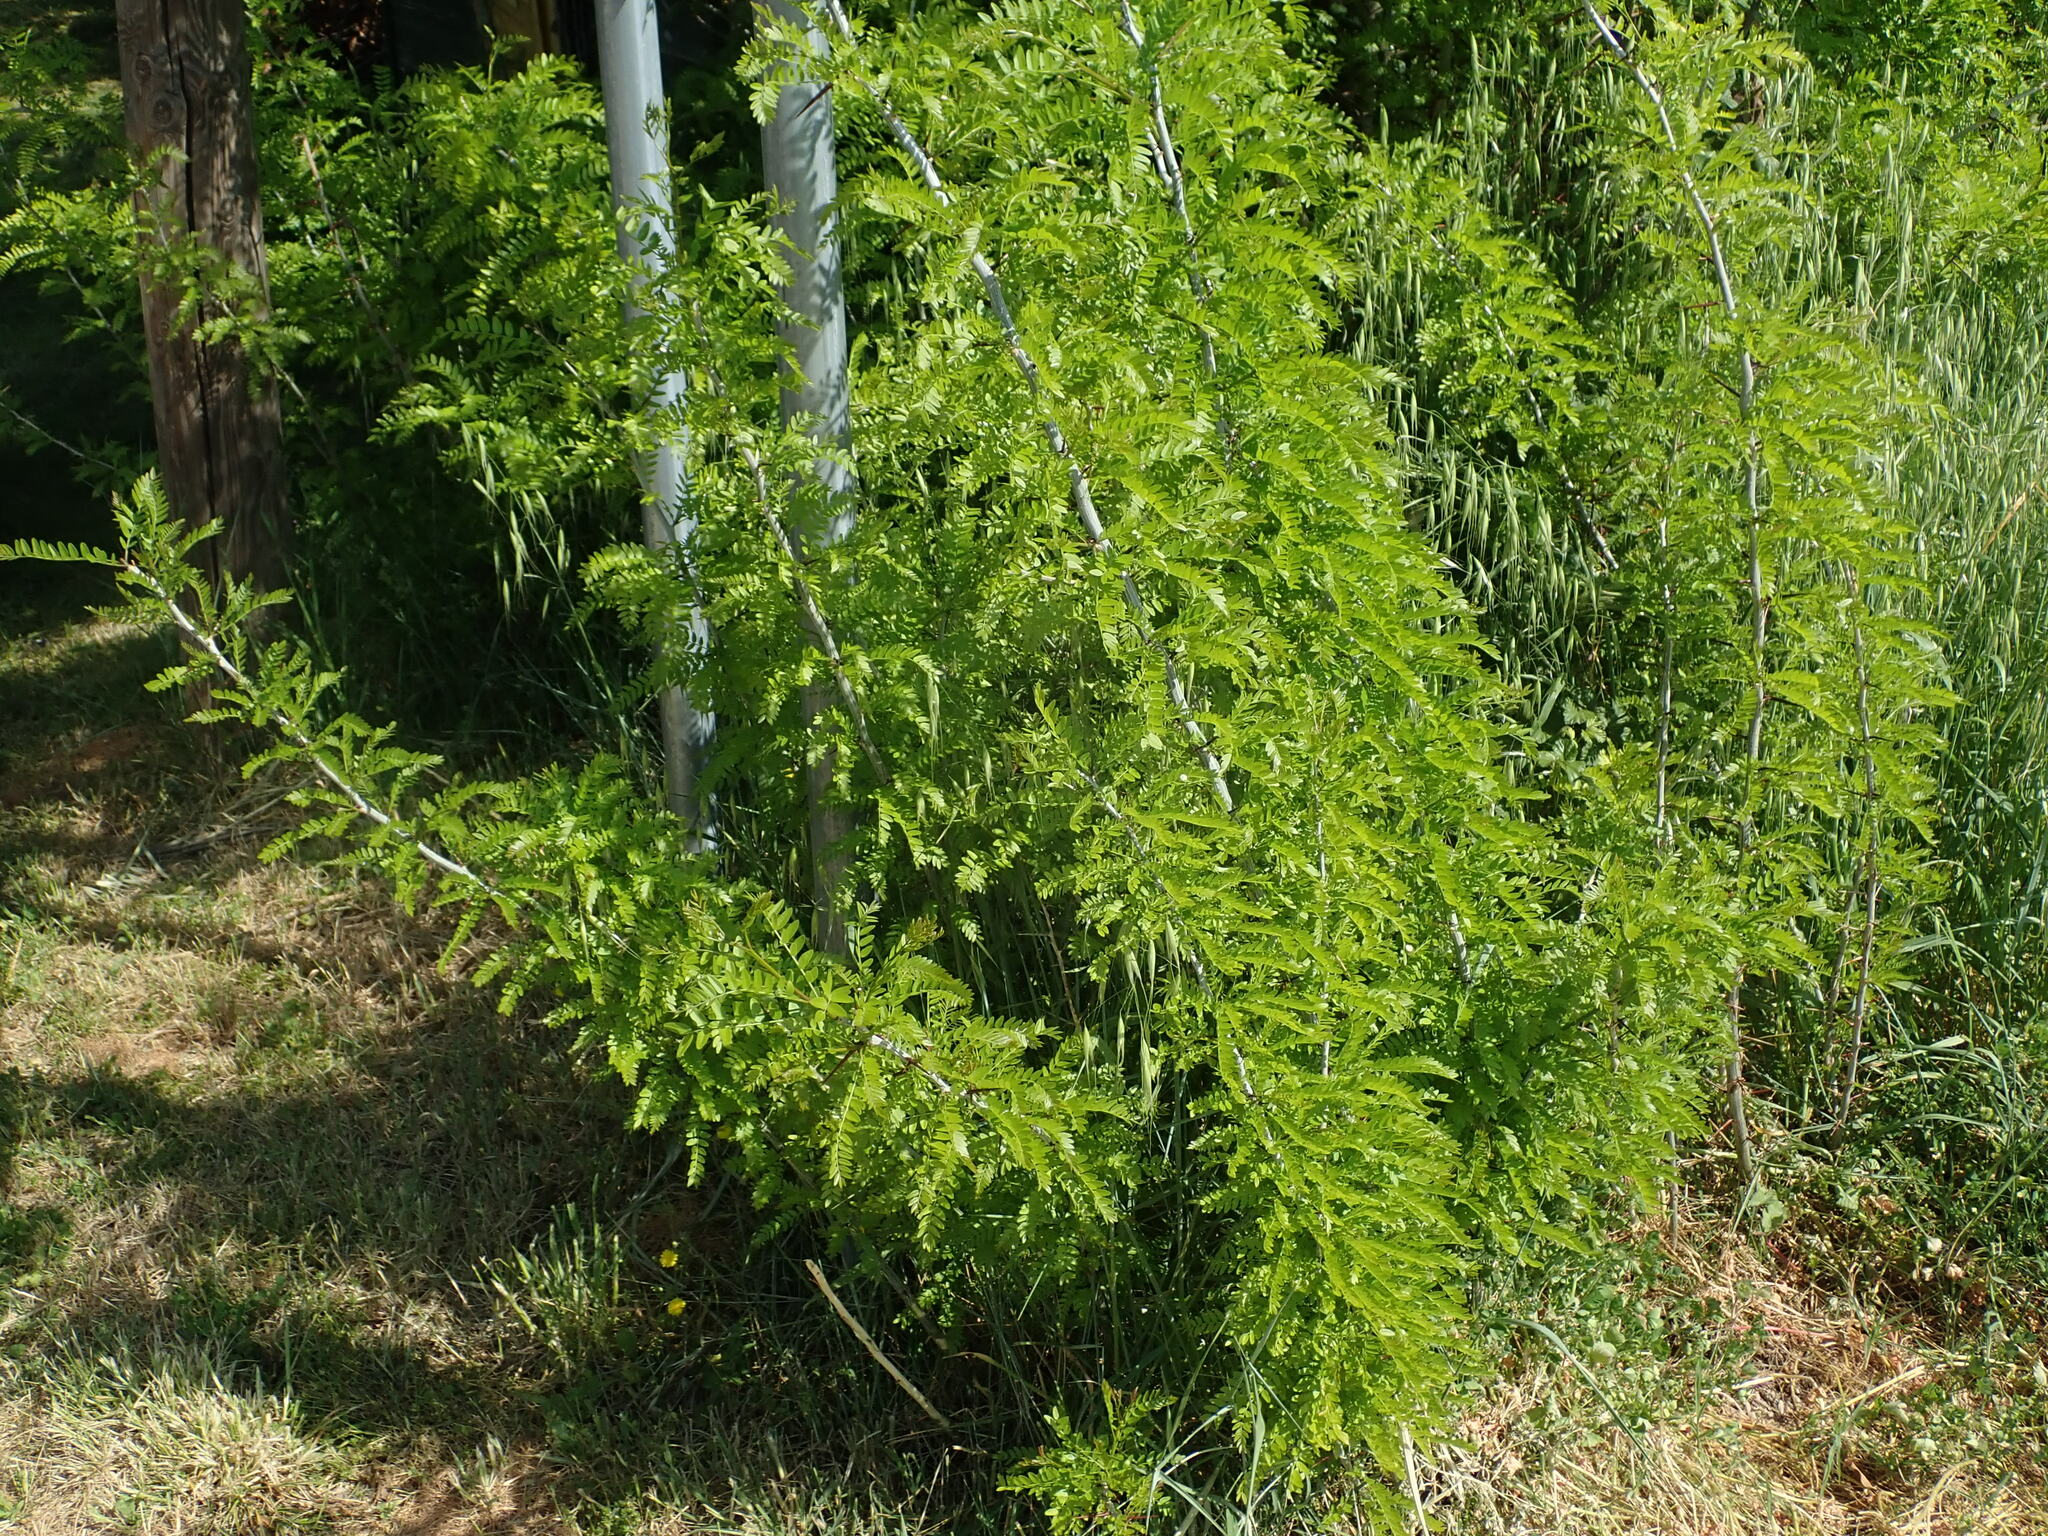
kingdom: Plantae
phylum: Tracheophyta
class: Magnoliopsida
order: Fabales
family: Fabaceae
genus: Gleditsia
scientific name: Gleditsia triacanthos
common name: Common honeylocust
